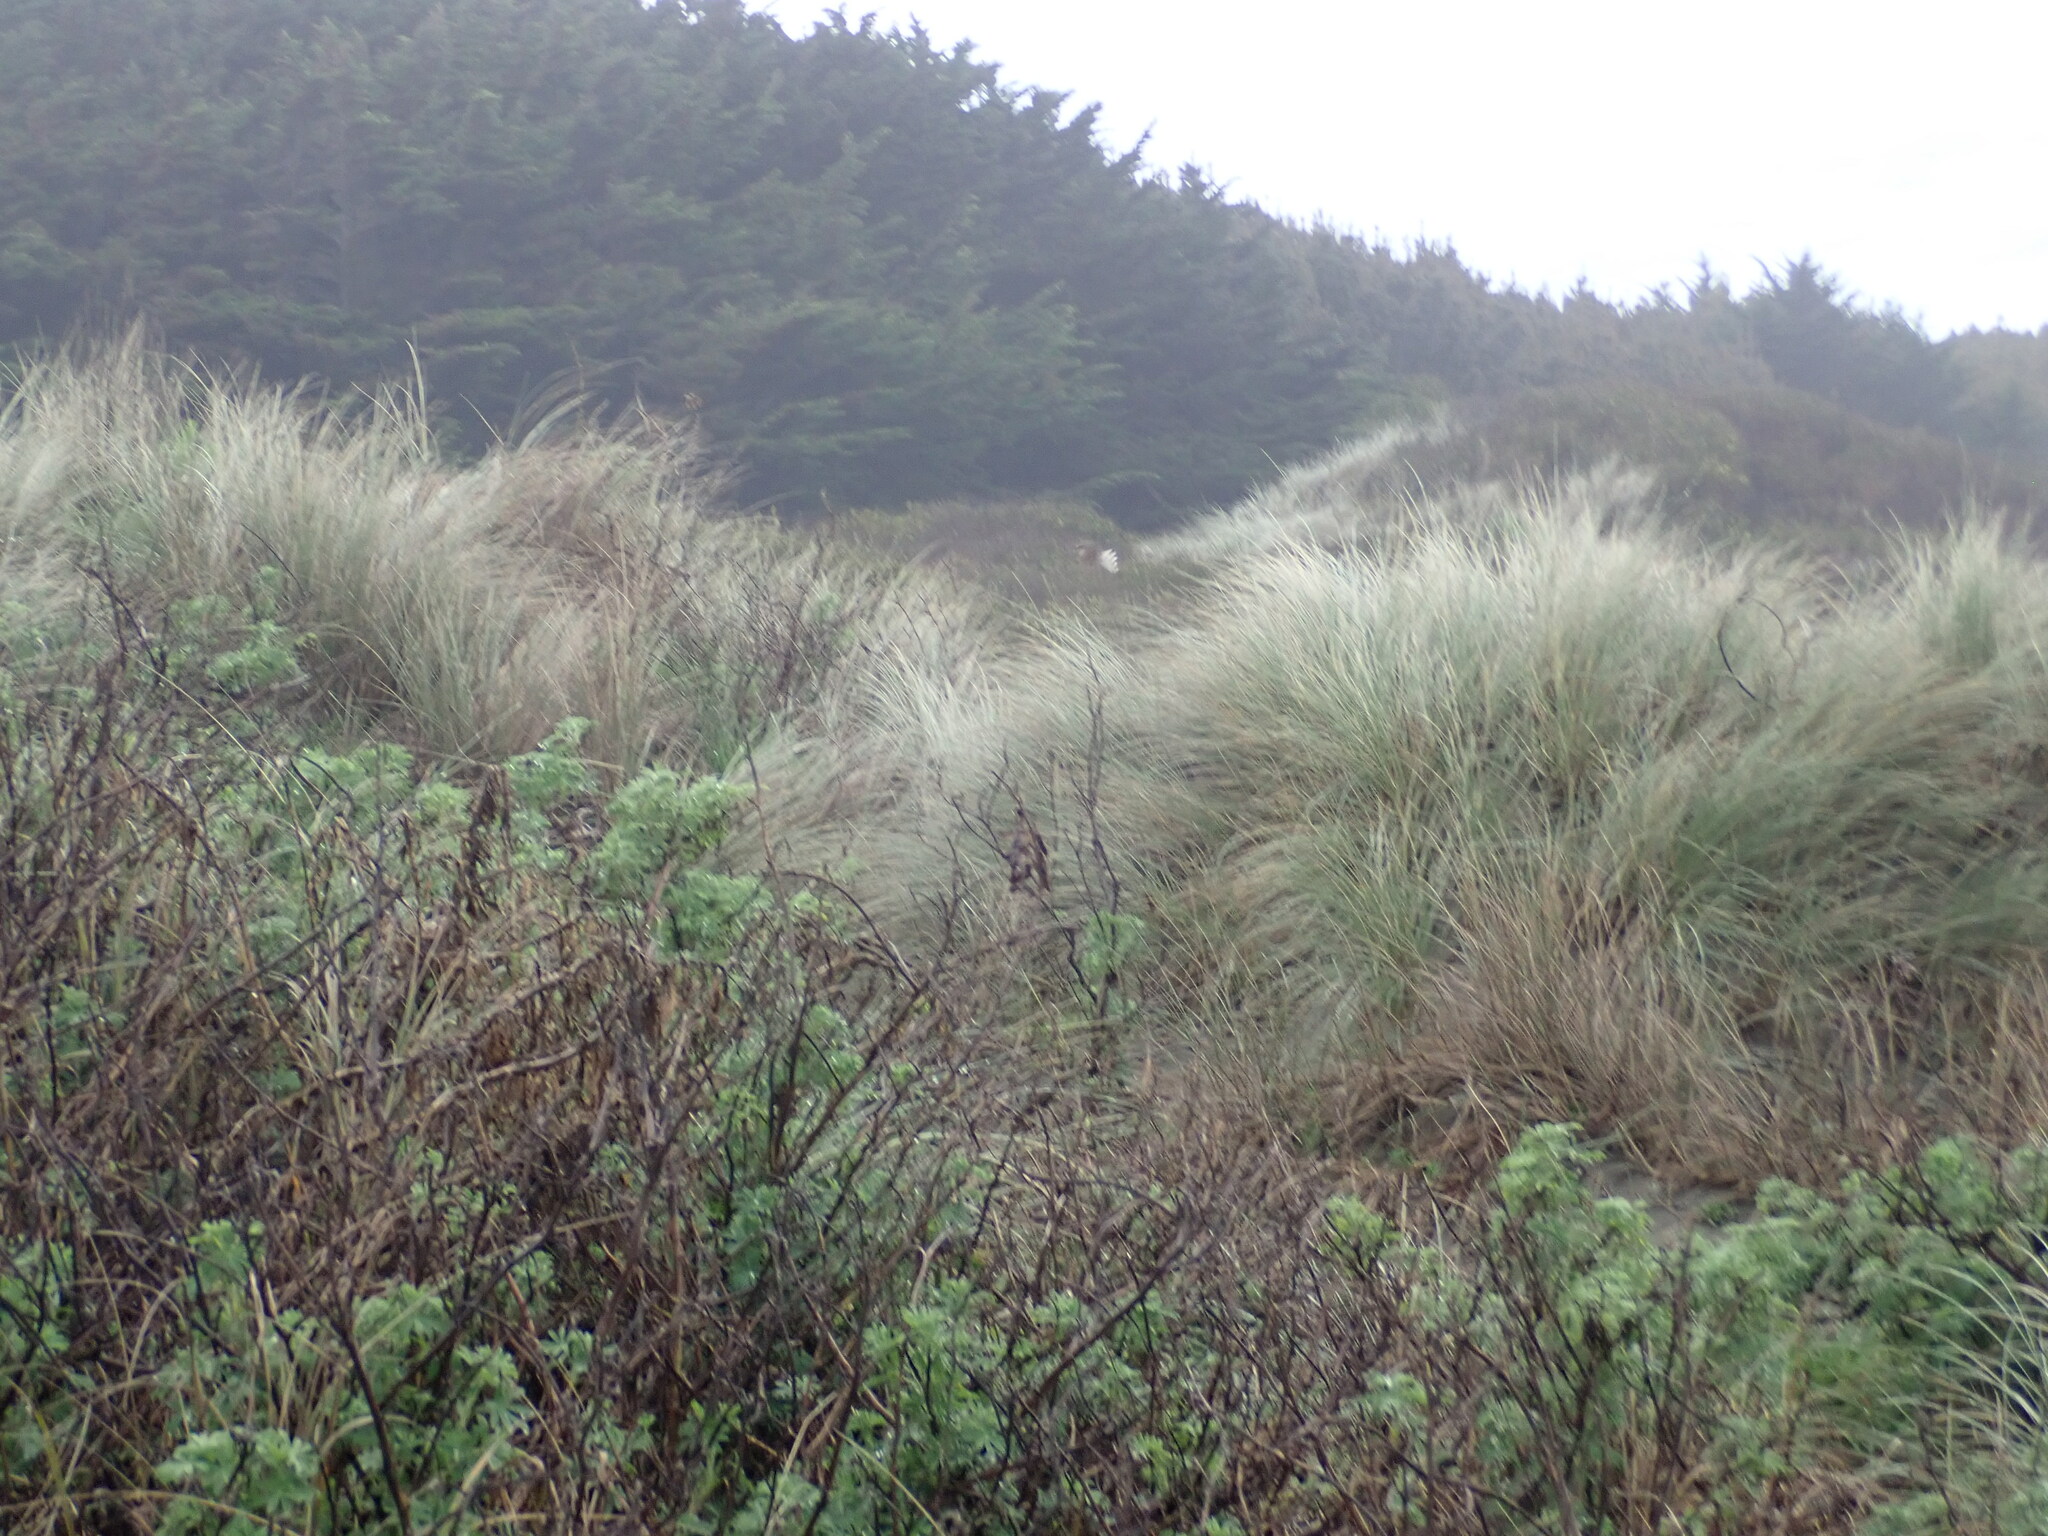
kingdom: Plantae
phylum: Tracheophyta
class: Magnoliopsida
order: Fabales
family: Fabaceae
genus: Lupinus
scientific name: Lupinus arboreus
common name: Yellow bush lupine
